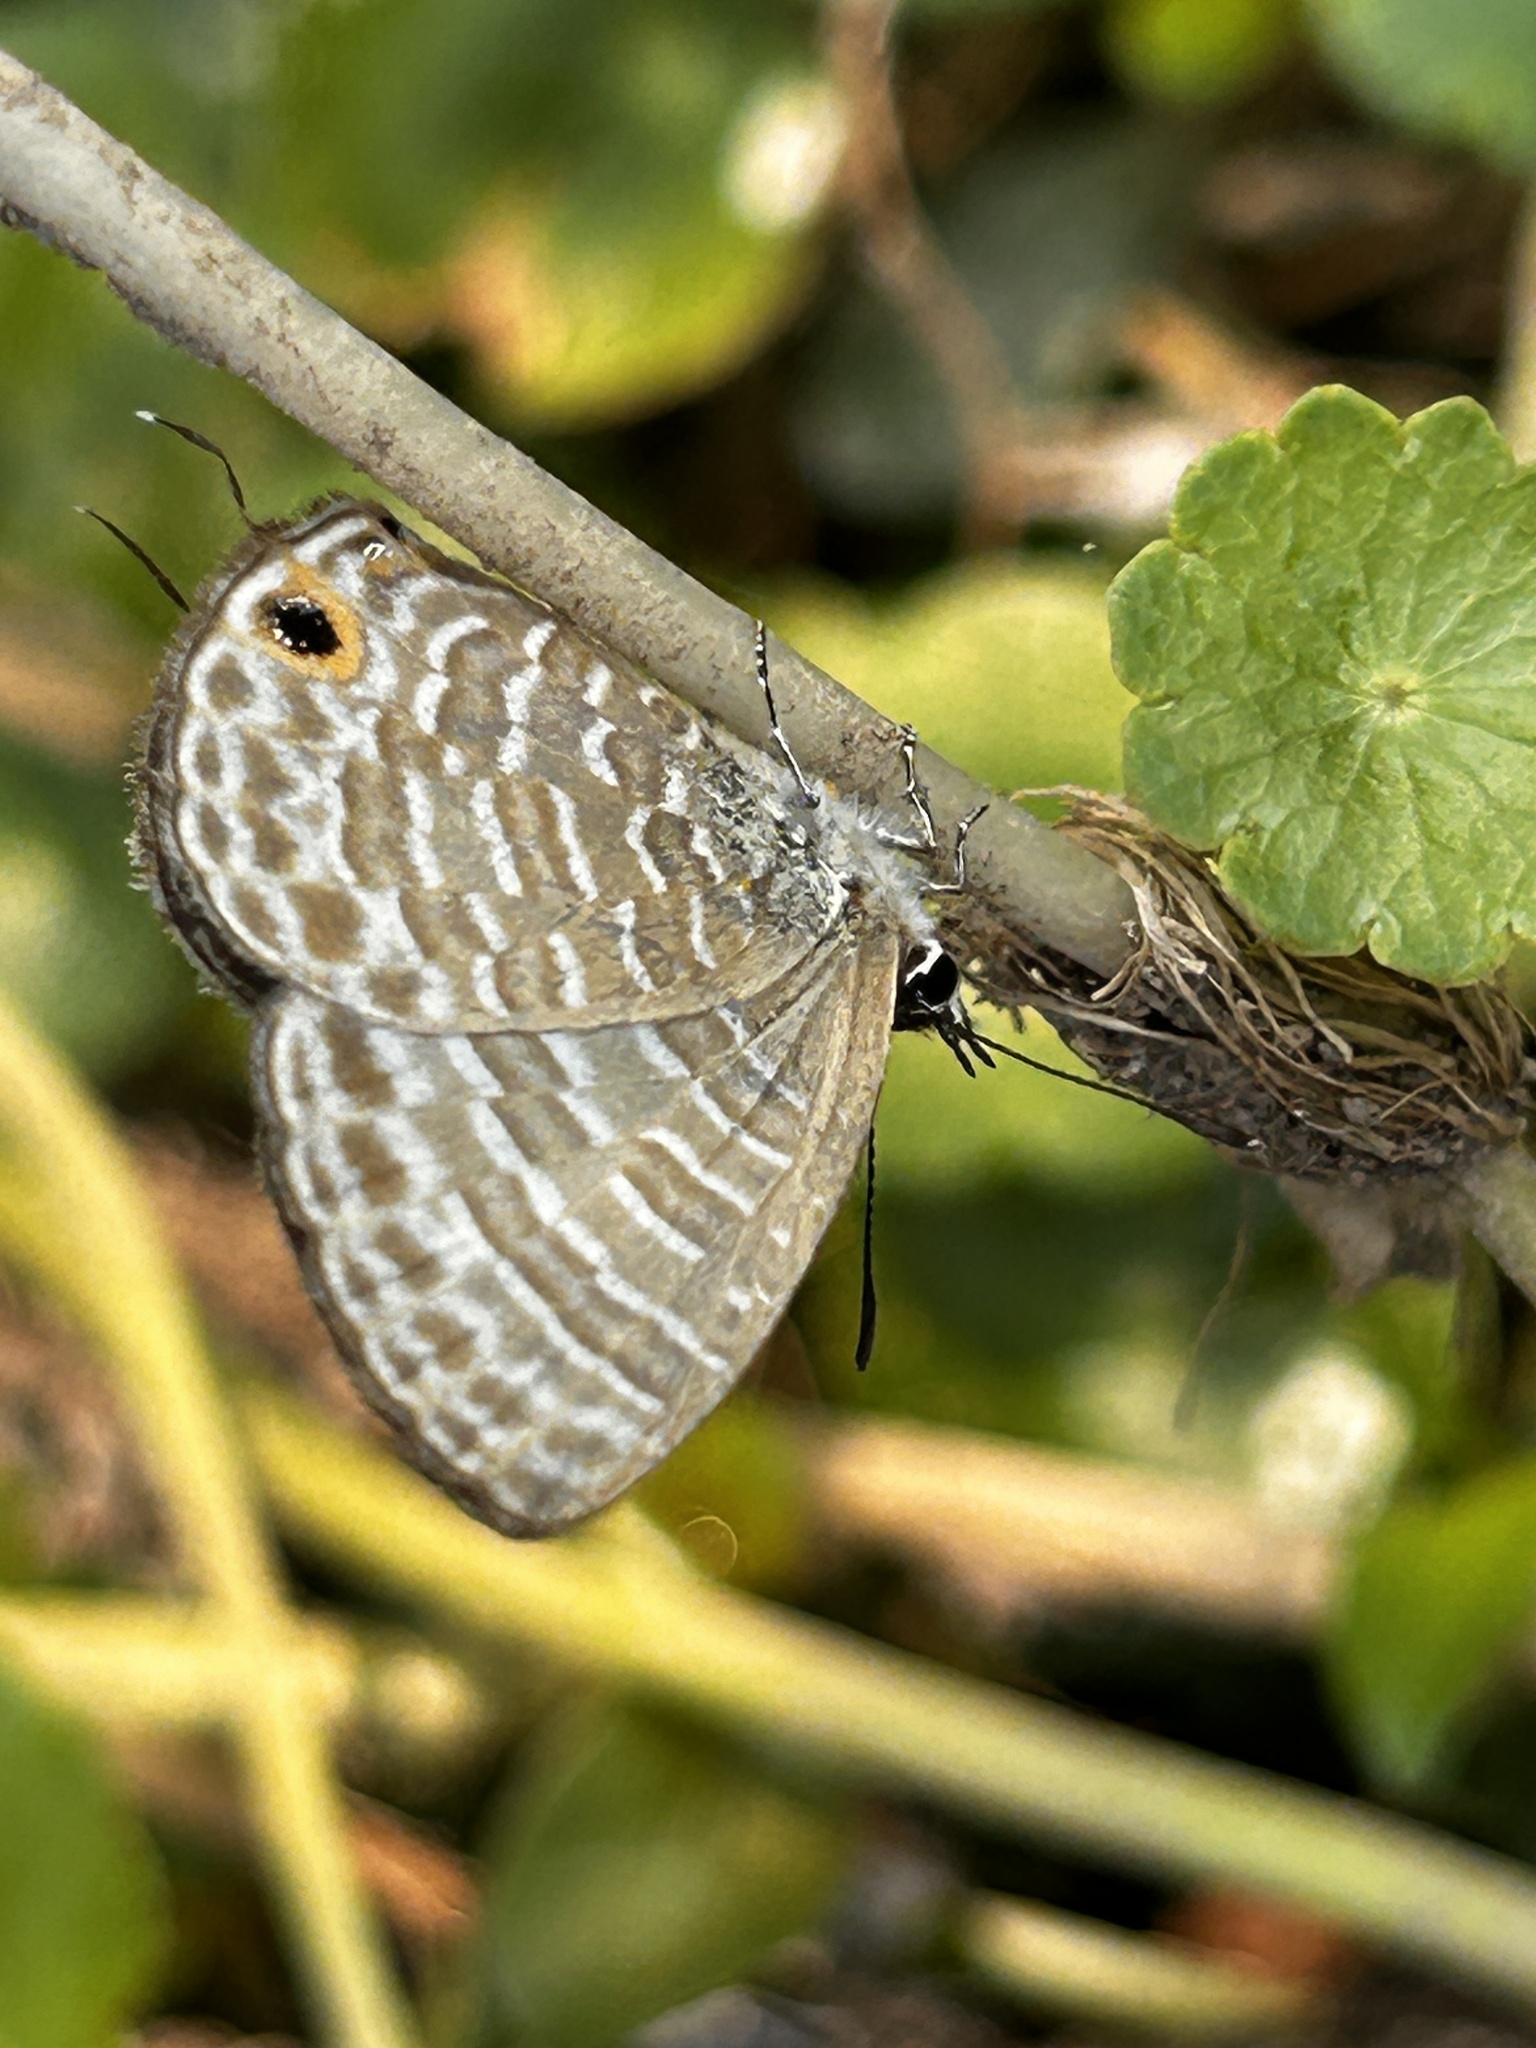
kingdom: Animalia
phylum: Arthropoda
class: Insecta
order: Lepidoptera
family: Lycaenidae
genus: Nacaduba
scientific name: Nacaduba kurava
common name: Transparent 6-line blue
